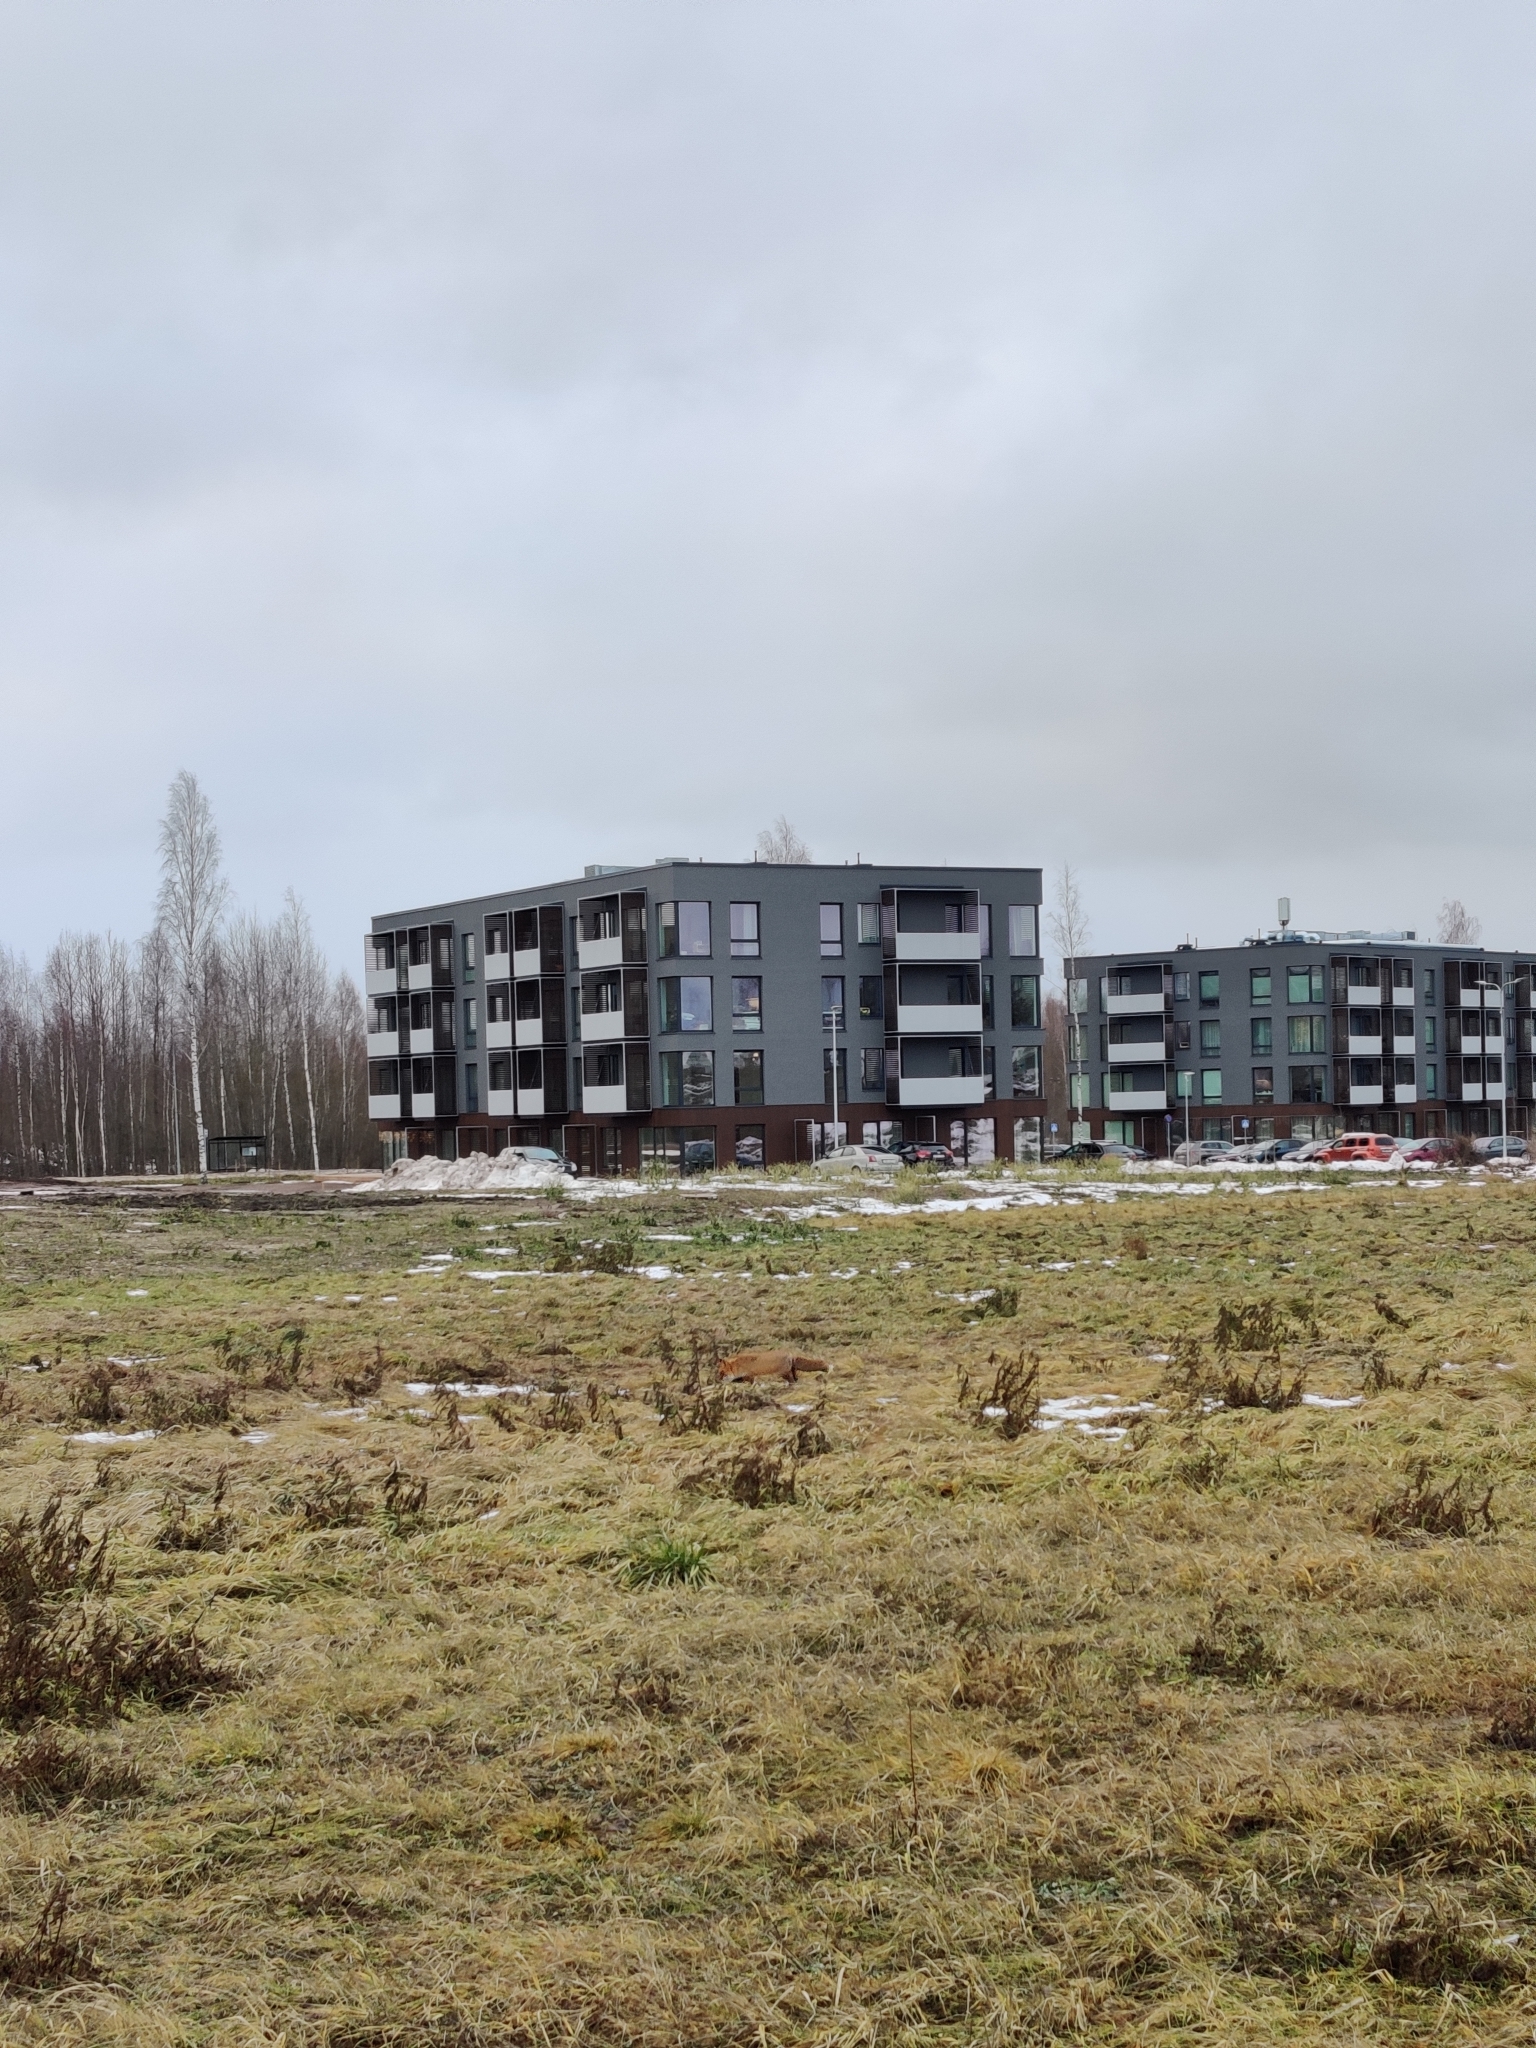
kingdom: Animalia
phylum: Chordata
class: Mammalia
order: Carnivora
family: Canidae
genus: Vulpes
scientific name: Vulpes vulpes
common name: Red fox
